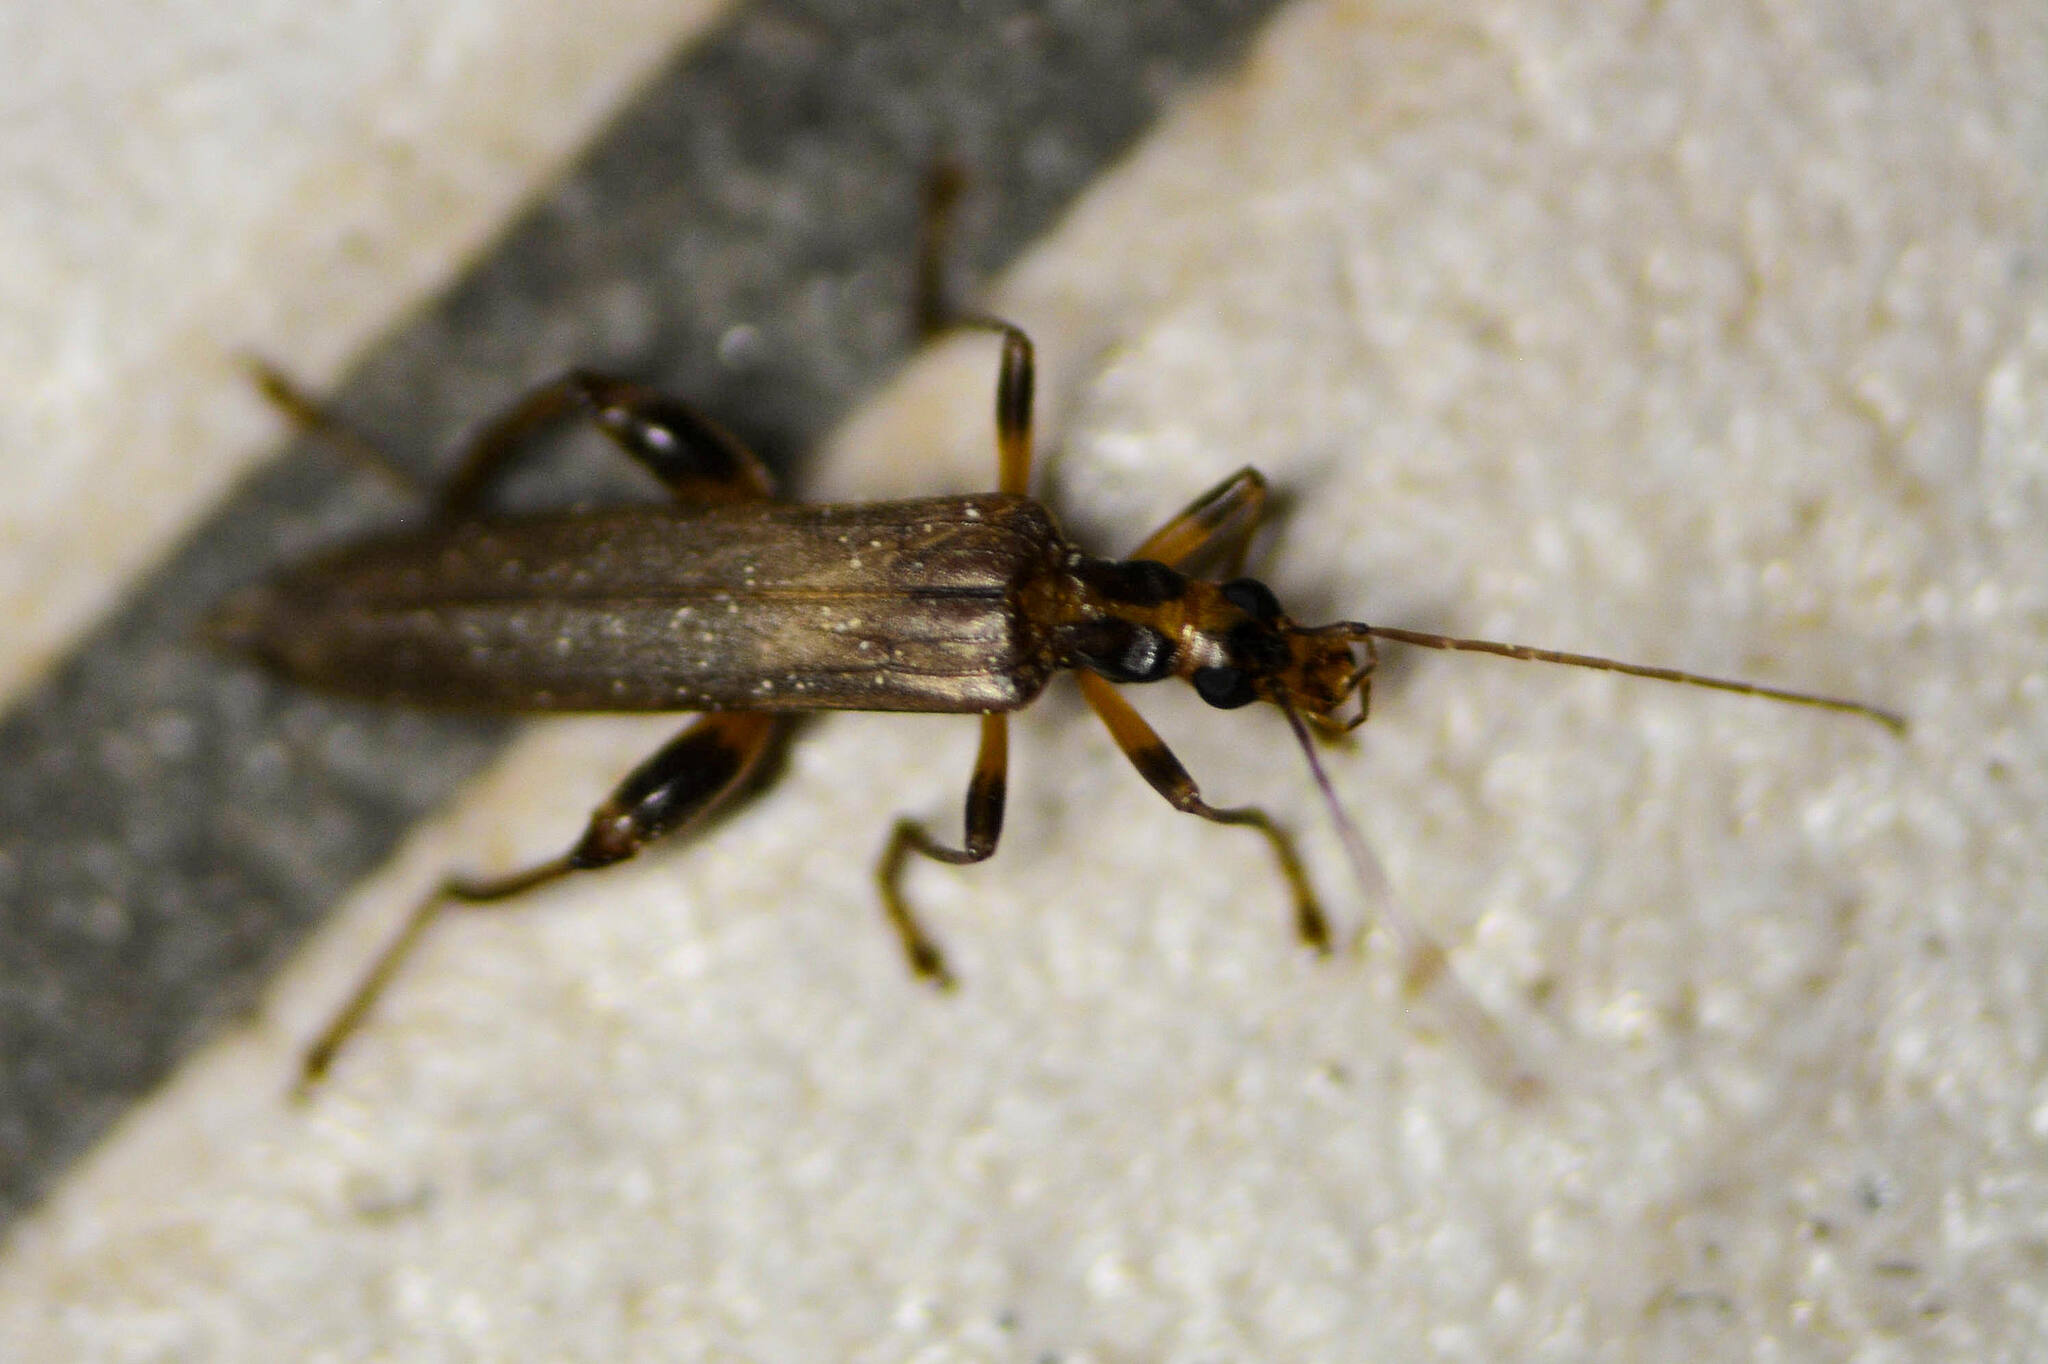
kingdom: Animalia
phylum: Arthropoda
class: Insecta
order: Coleoptera
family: Oedemeridae
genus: Oedemera
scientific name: Oedemera femoralis
